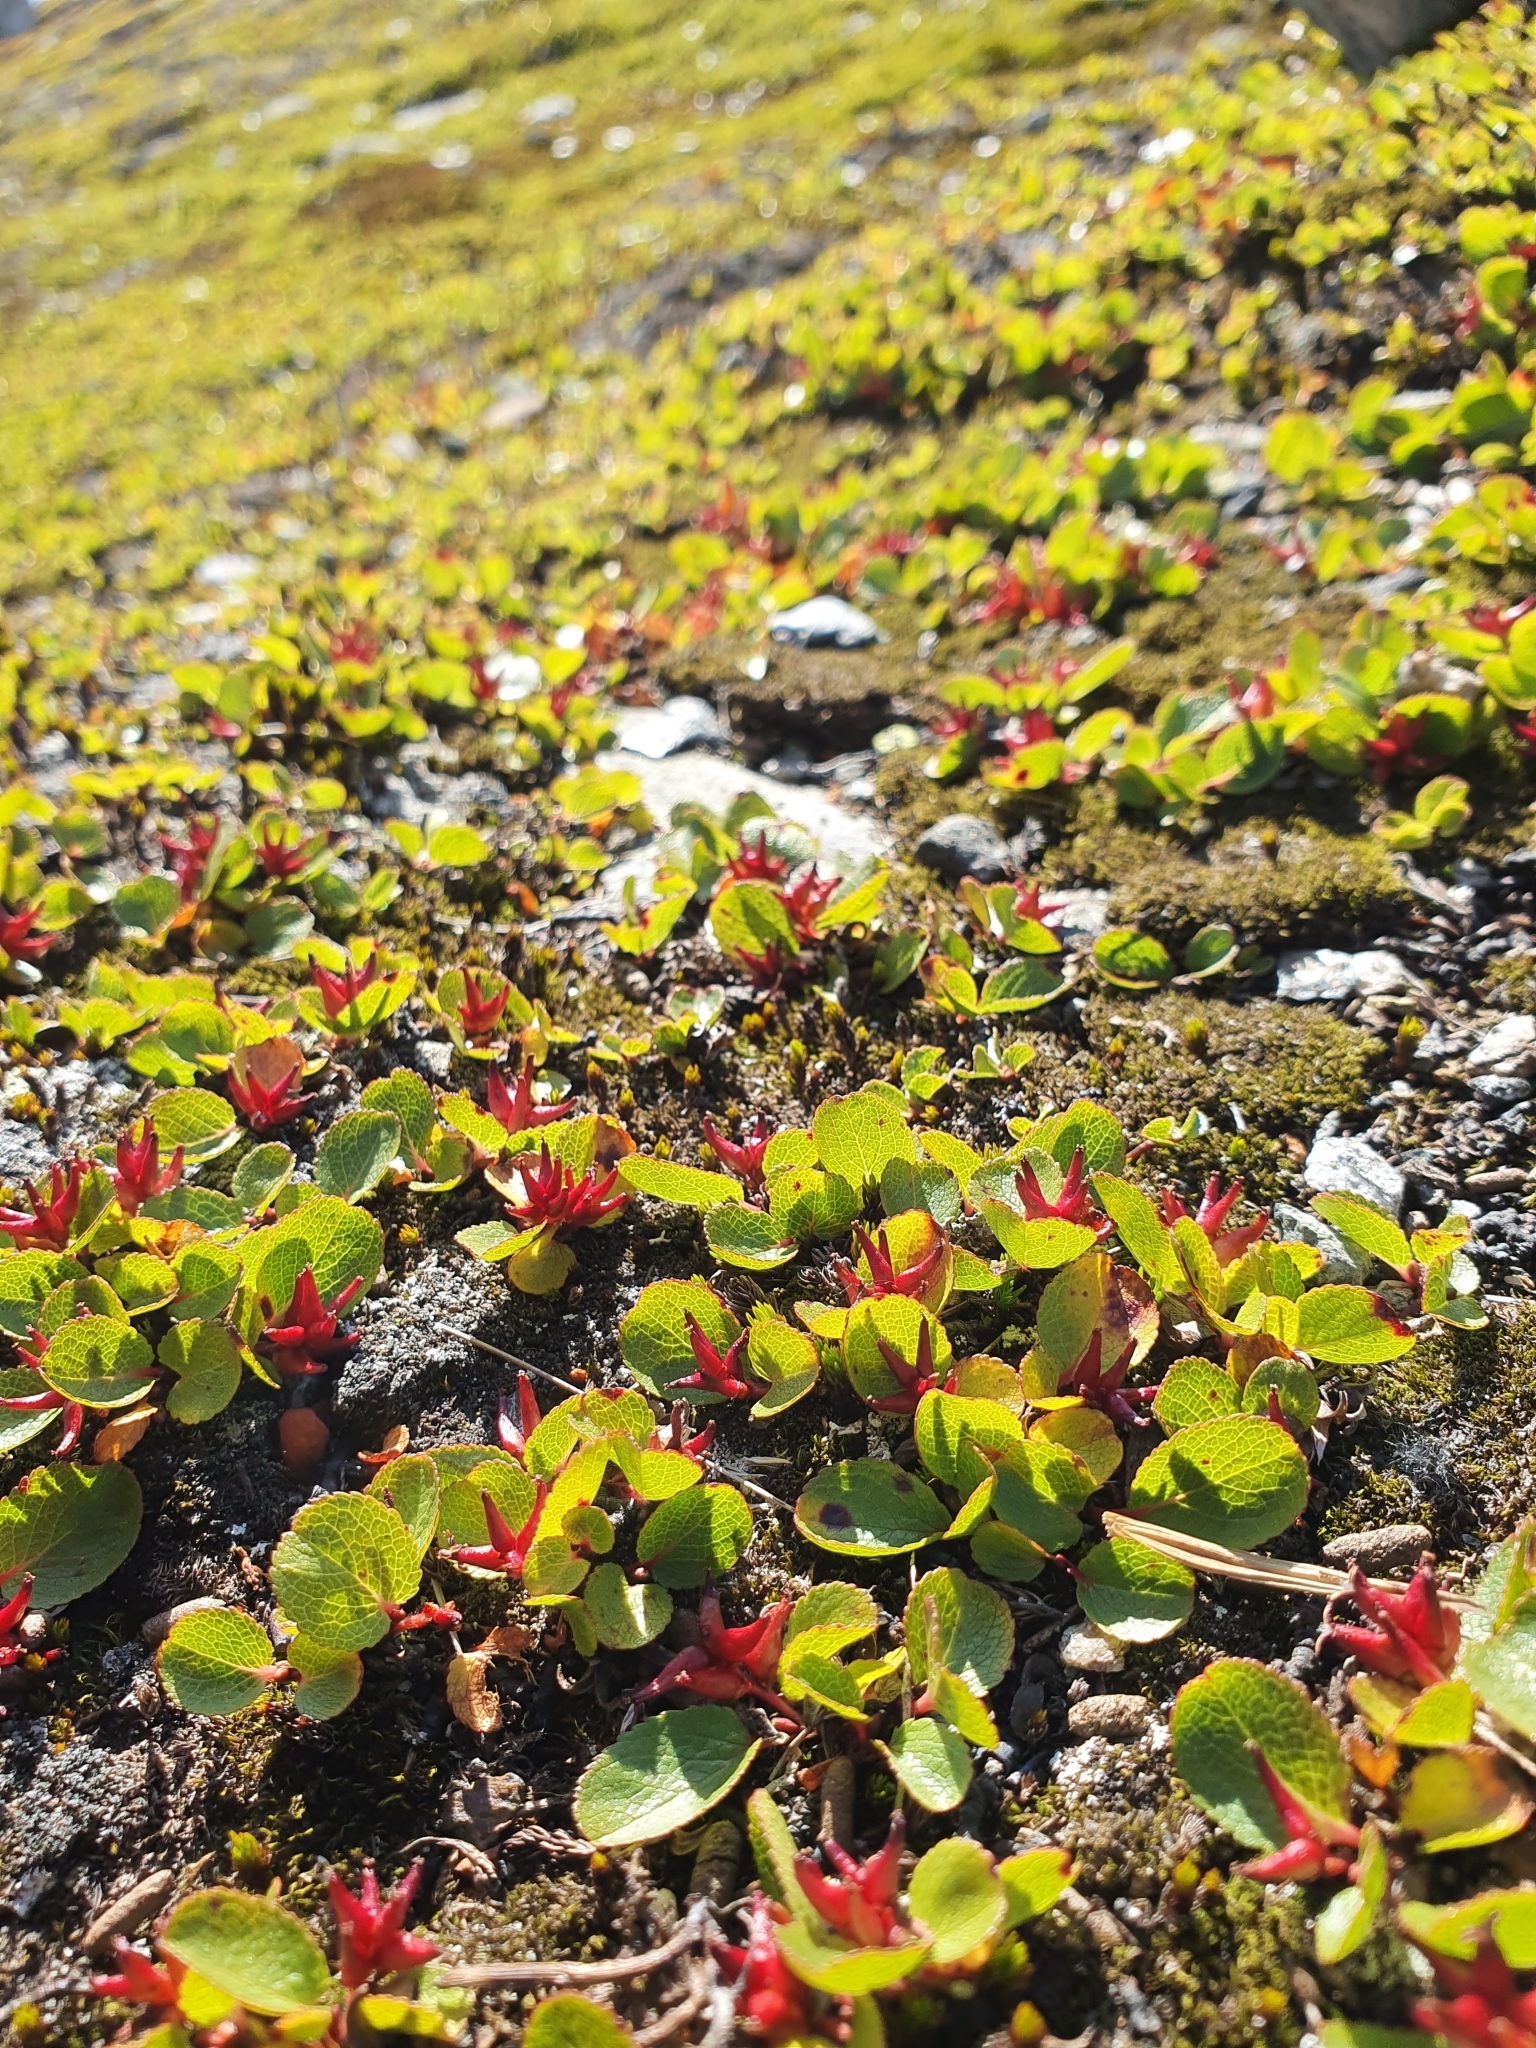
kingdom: Plantae
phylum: Tracheophyta
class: Magnoliopsida
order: Malpighiales
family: Salicaceae
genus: Salix
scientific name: Salix herbacea
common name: Dwarf willow
